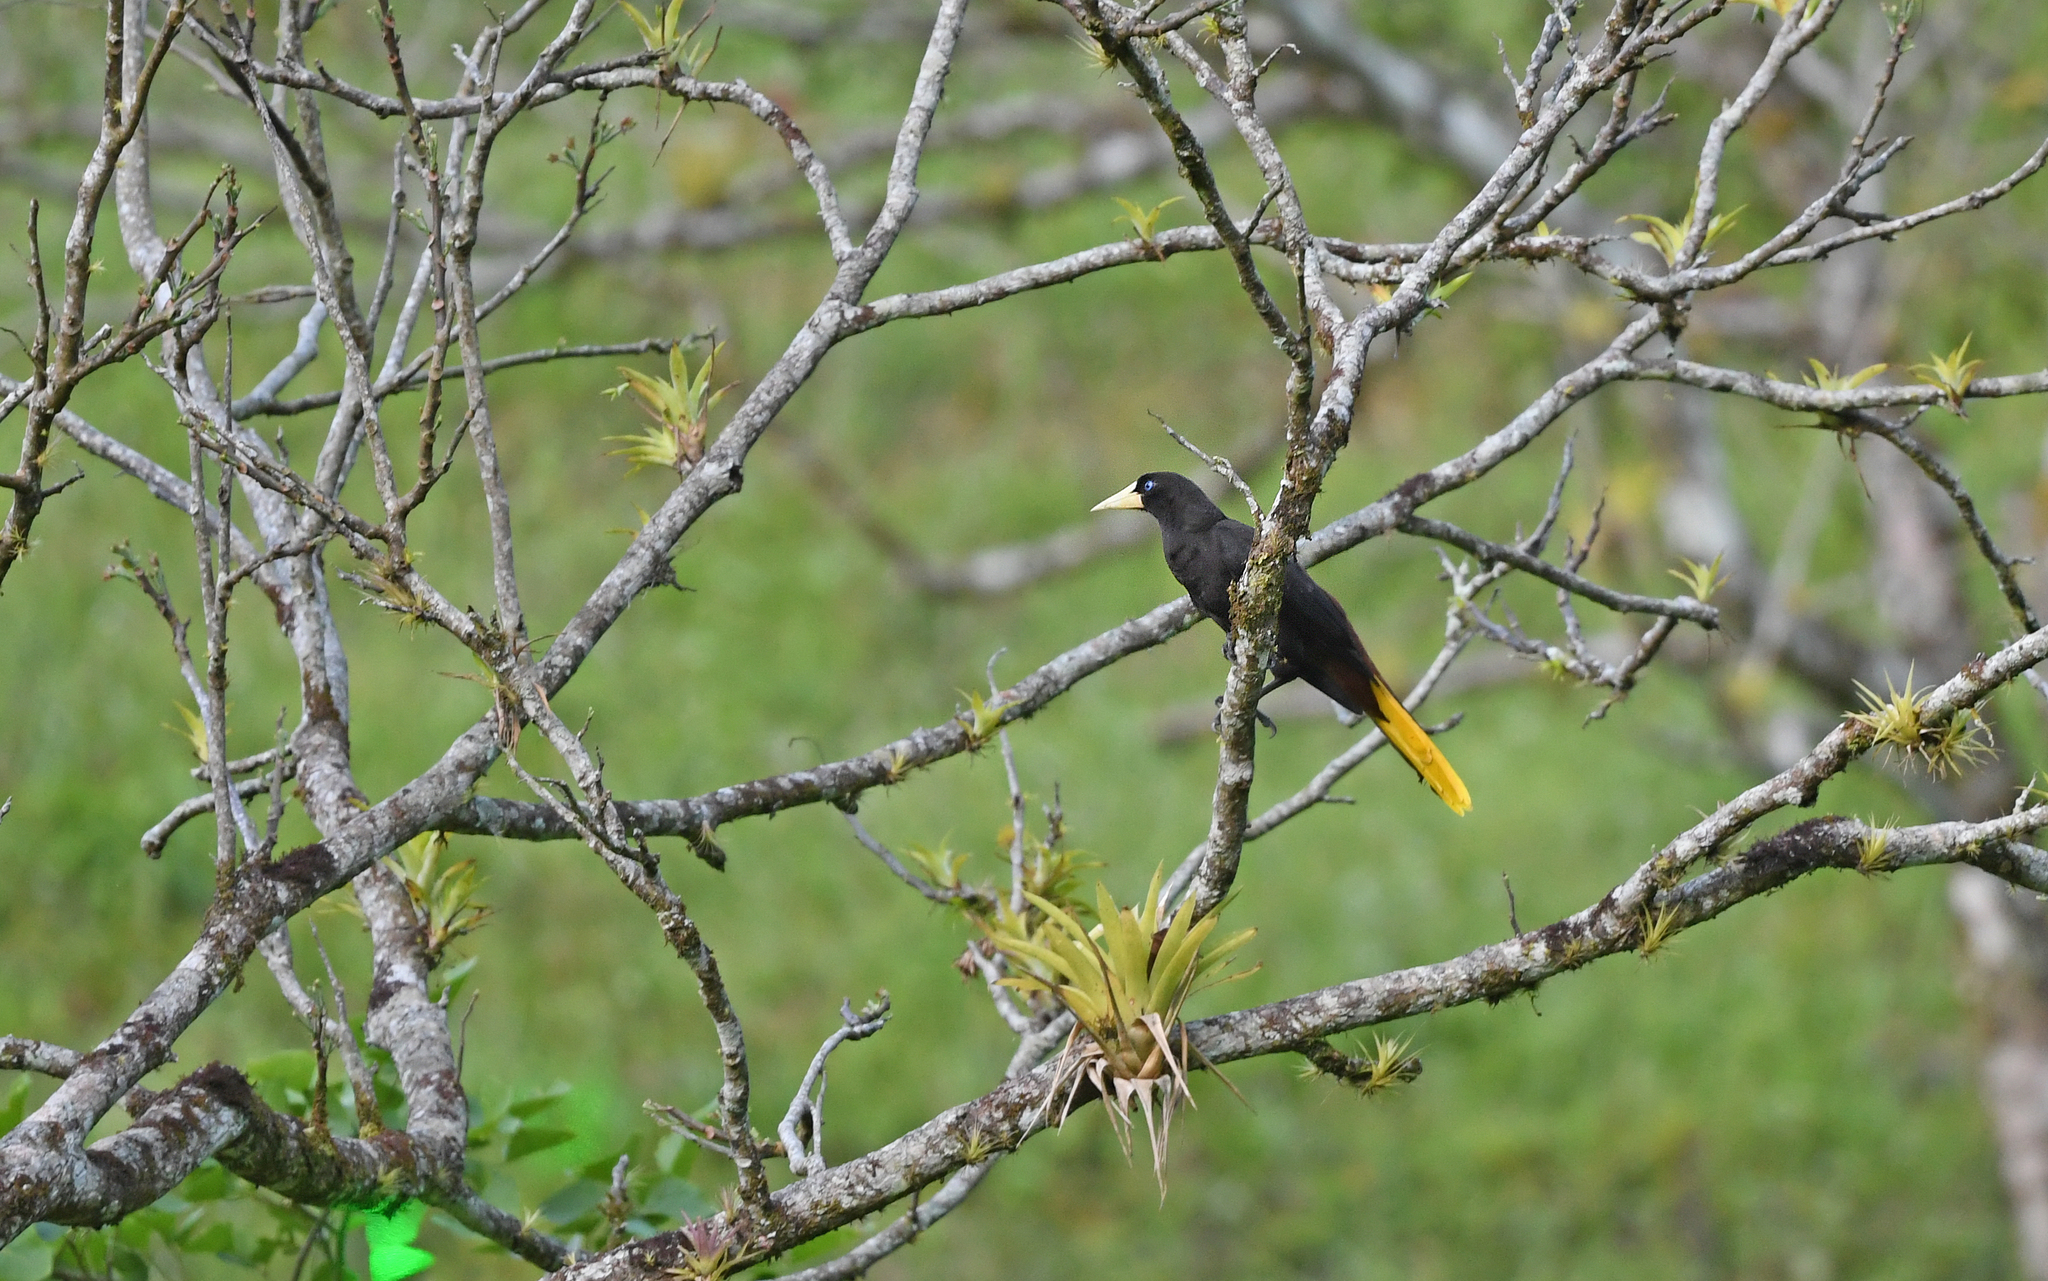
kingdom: Animalia
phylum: Chordata
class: Aves
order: Passeriformes
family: Icteridae
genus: Psarocolius
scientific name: Psarocolius decumanus
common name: Crested oropendola
